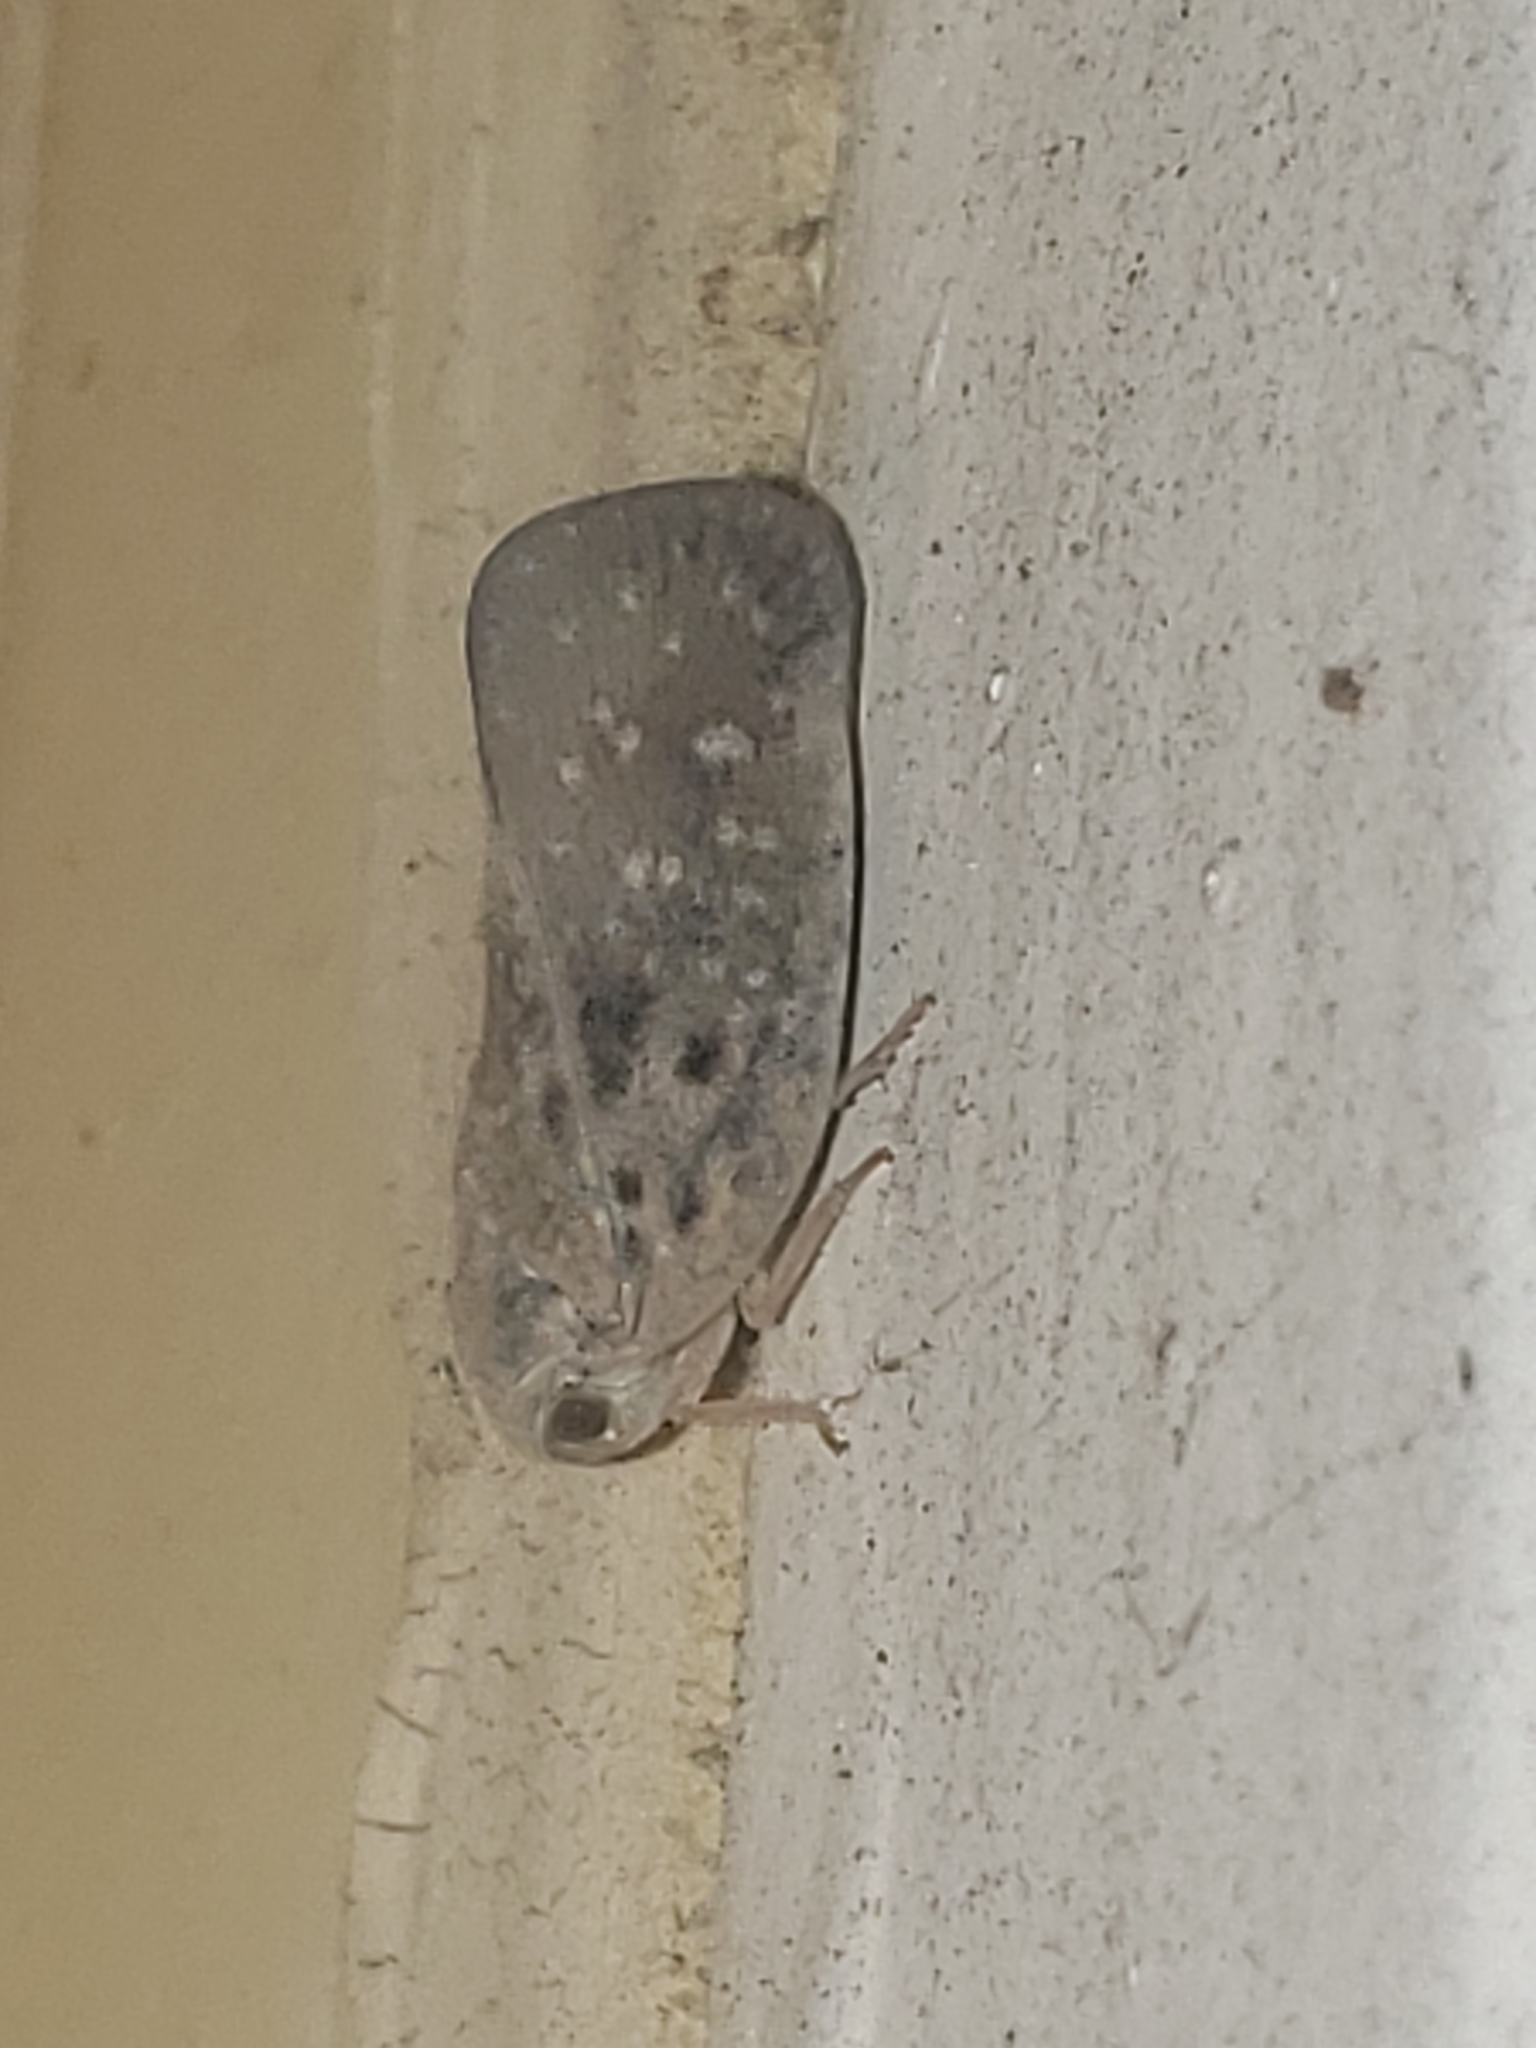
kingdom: Animalia
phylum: Arthropoda
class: Insecta
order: Hemiptera
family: Flatidae
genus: Metcalfa
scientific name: Metcalfa pruinosa
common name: Citrus flatid planthopper
